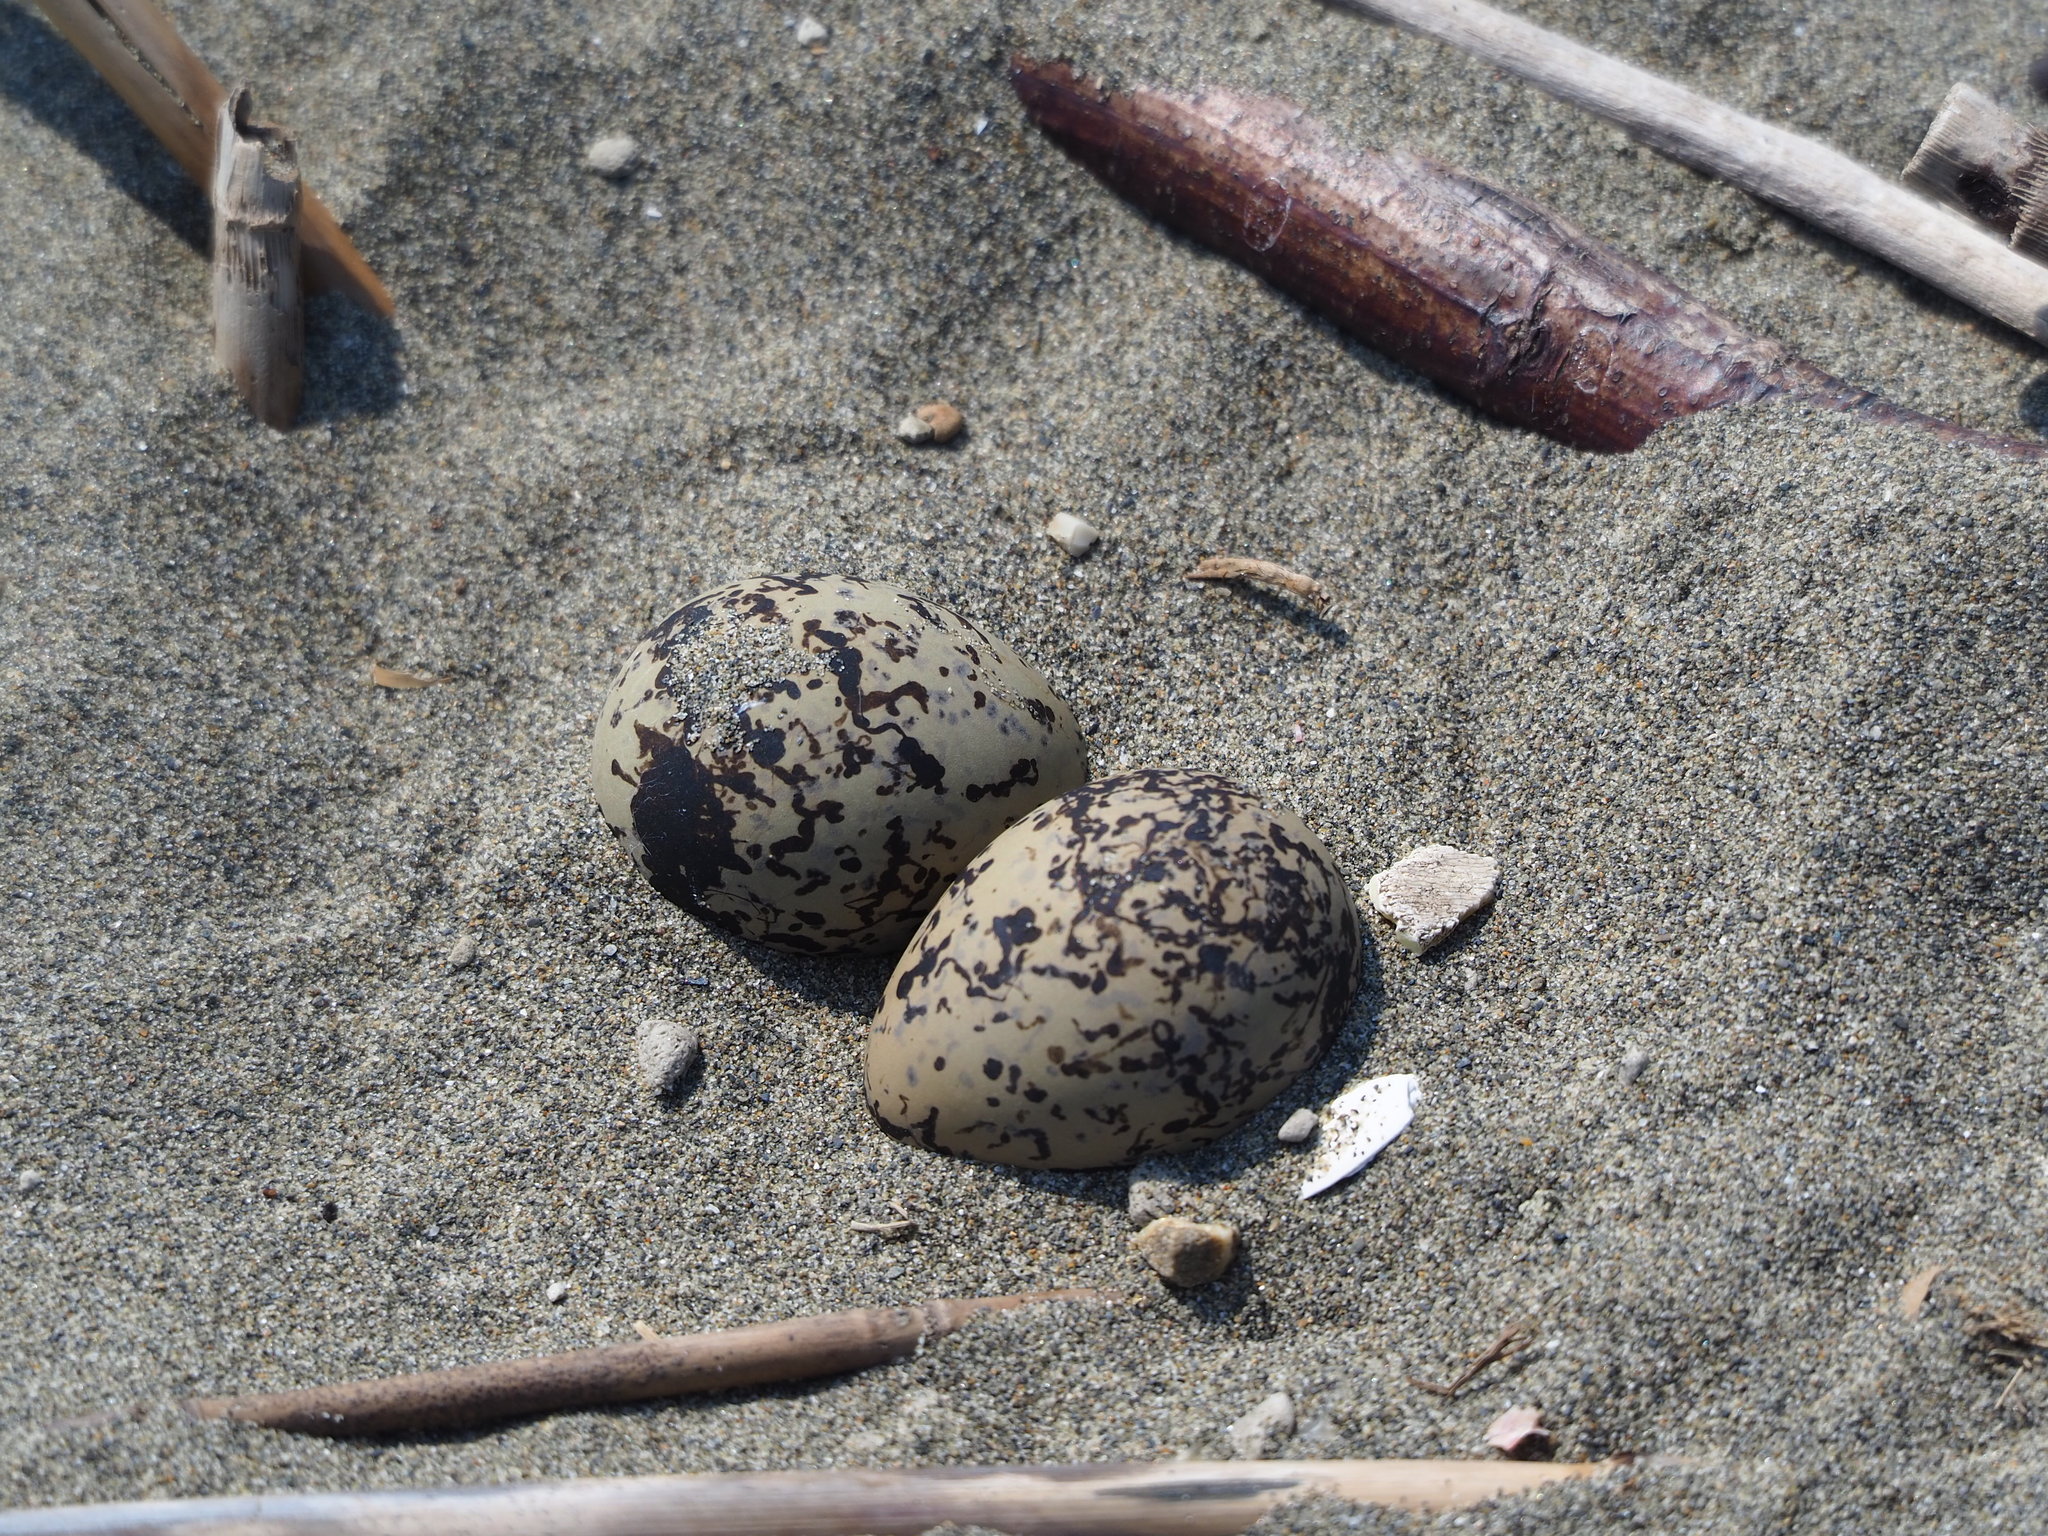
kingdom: Animalia
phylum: Chordata
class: Aves
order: Charadriiformes
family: Charadriidae
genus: Charadrius
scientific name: Charadrius alexandrinus
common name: Kentish plover
